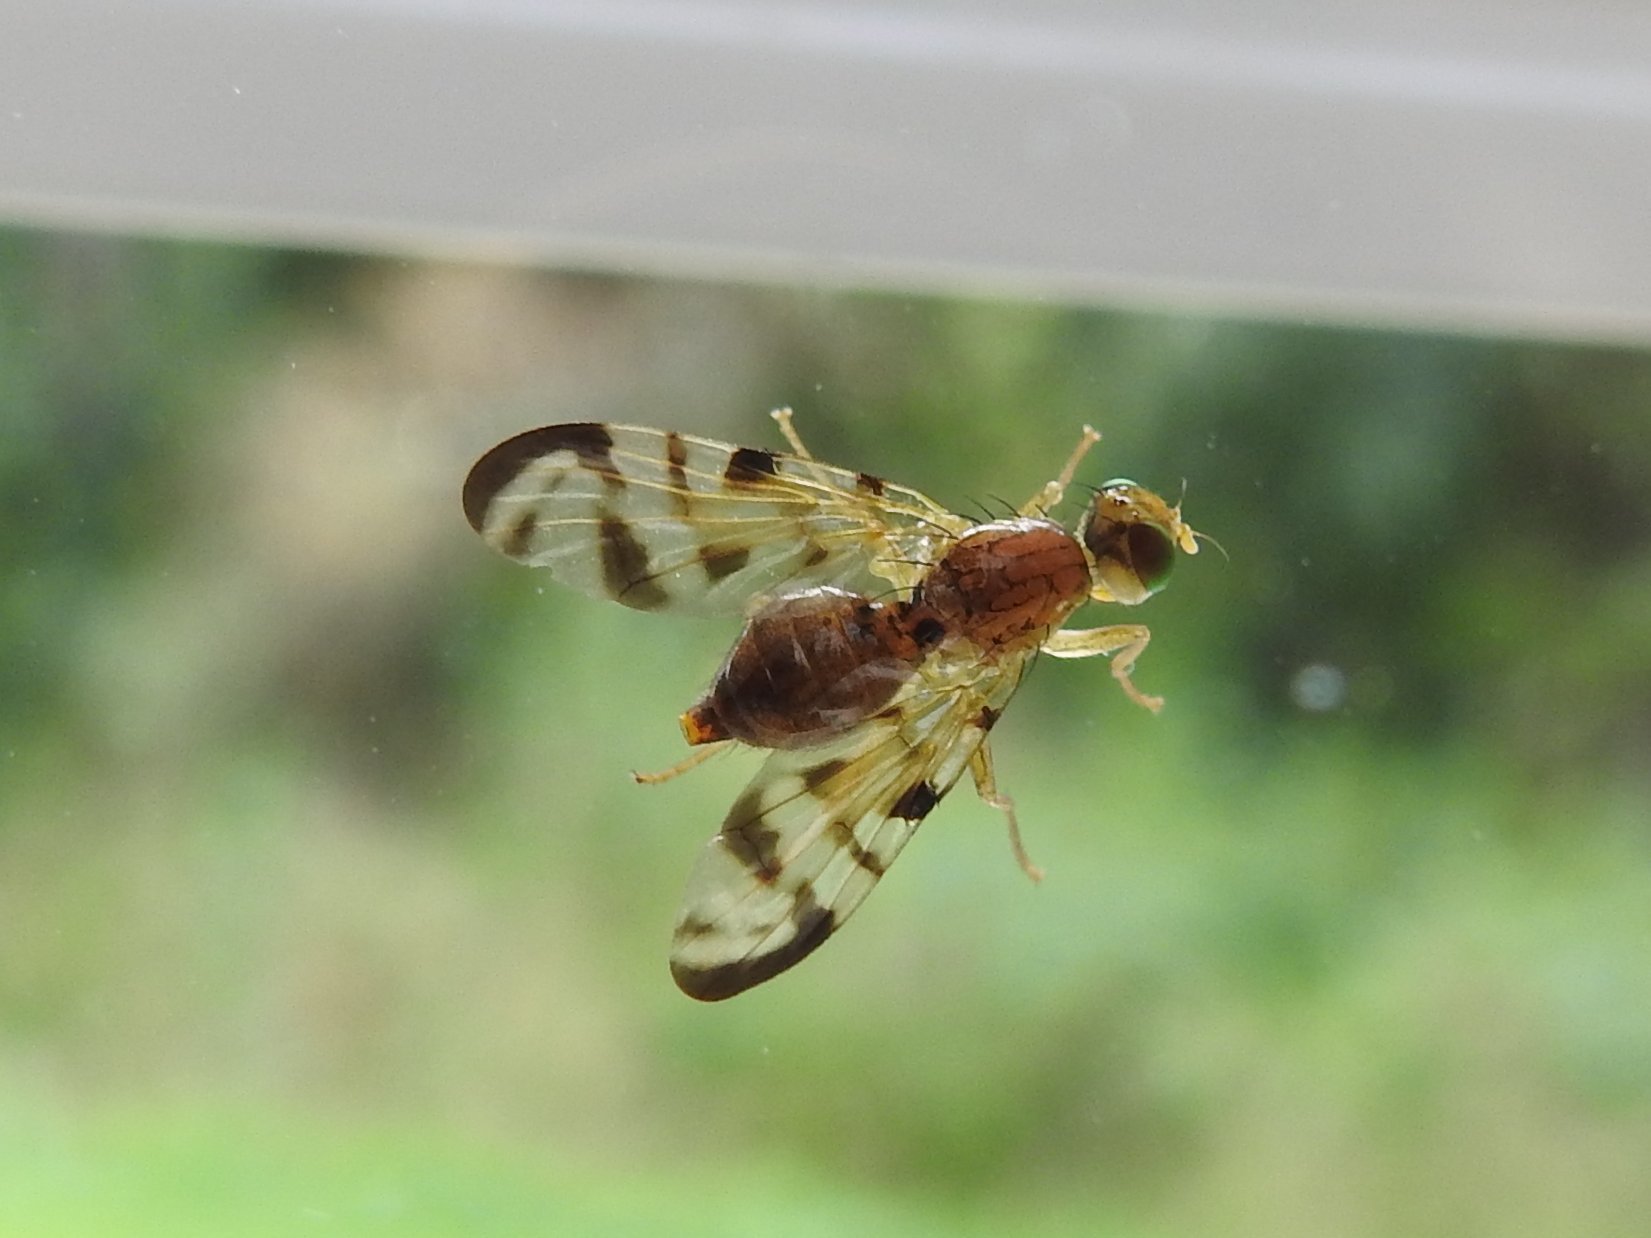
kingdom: Animalia
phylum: Arthropoda
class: Insecta
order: Diptera
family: Tephritidae
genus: Acidia
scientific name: Acidia cognata
